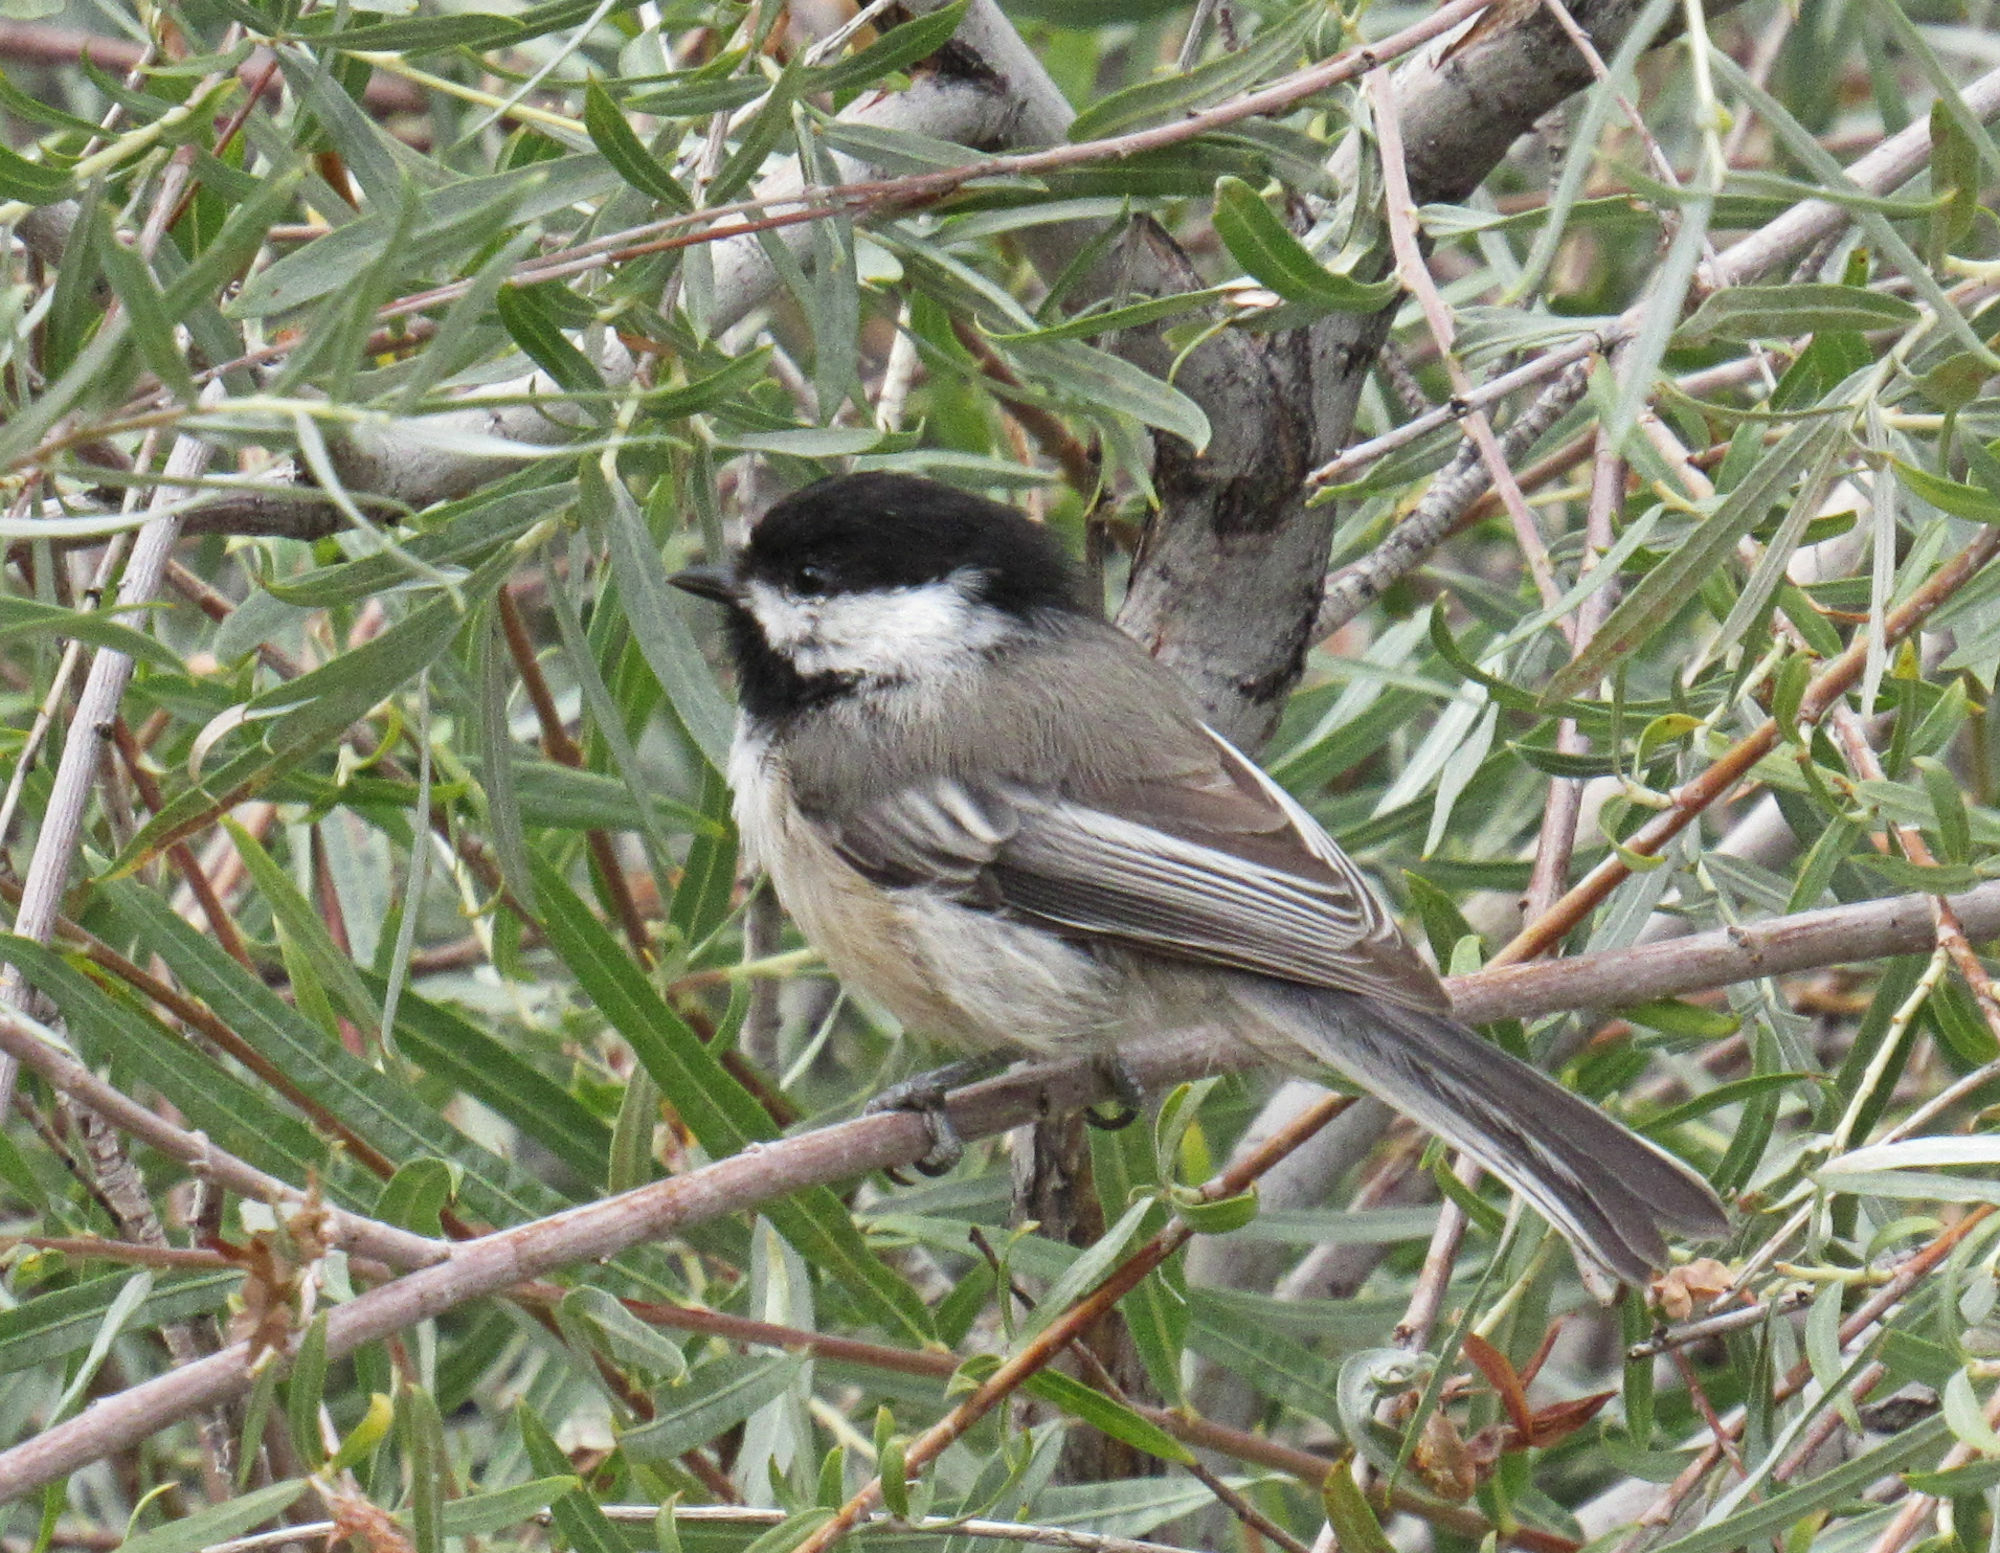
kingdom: Animalia
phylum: Chordata
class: Aves
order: Passeriformes
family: Paridae
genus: Poecile
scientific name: Poecile atricapillus
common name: Black-capped chickadee
